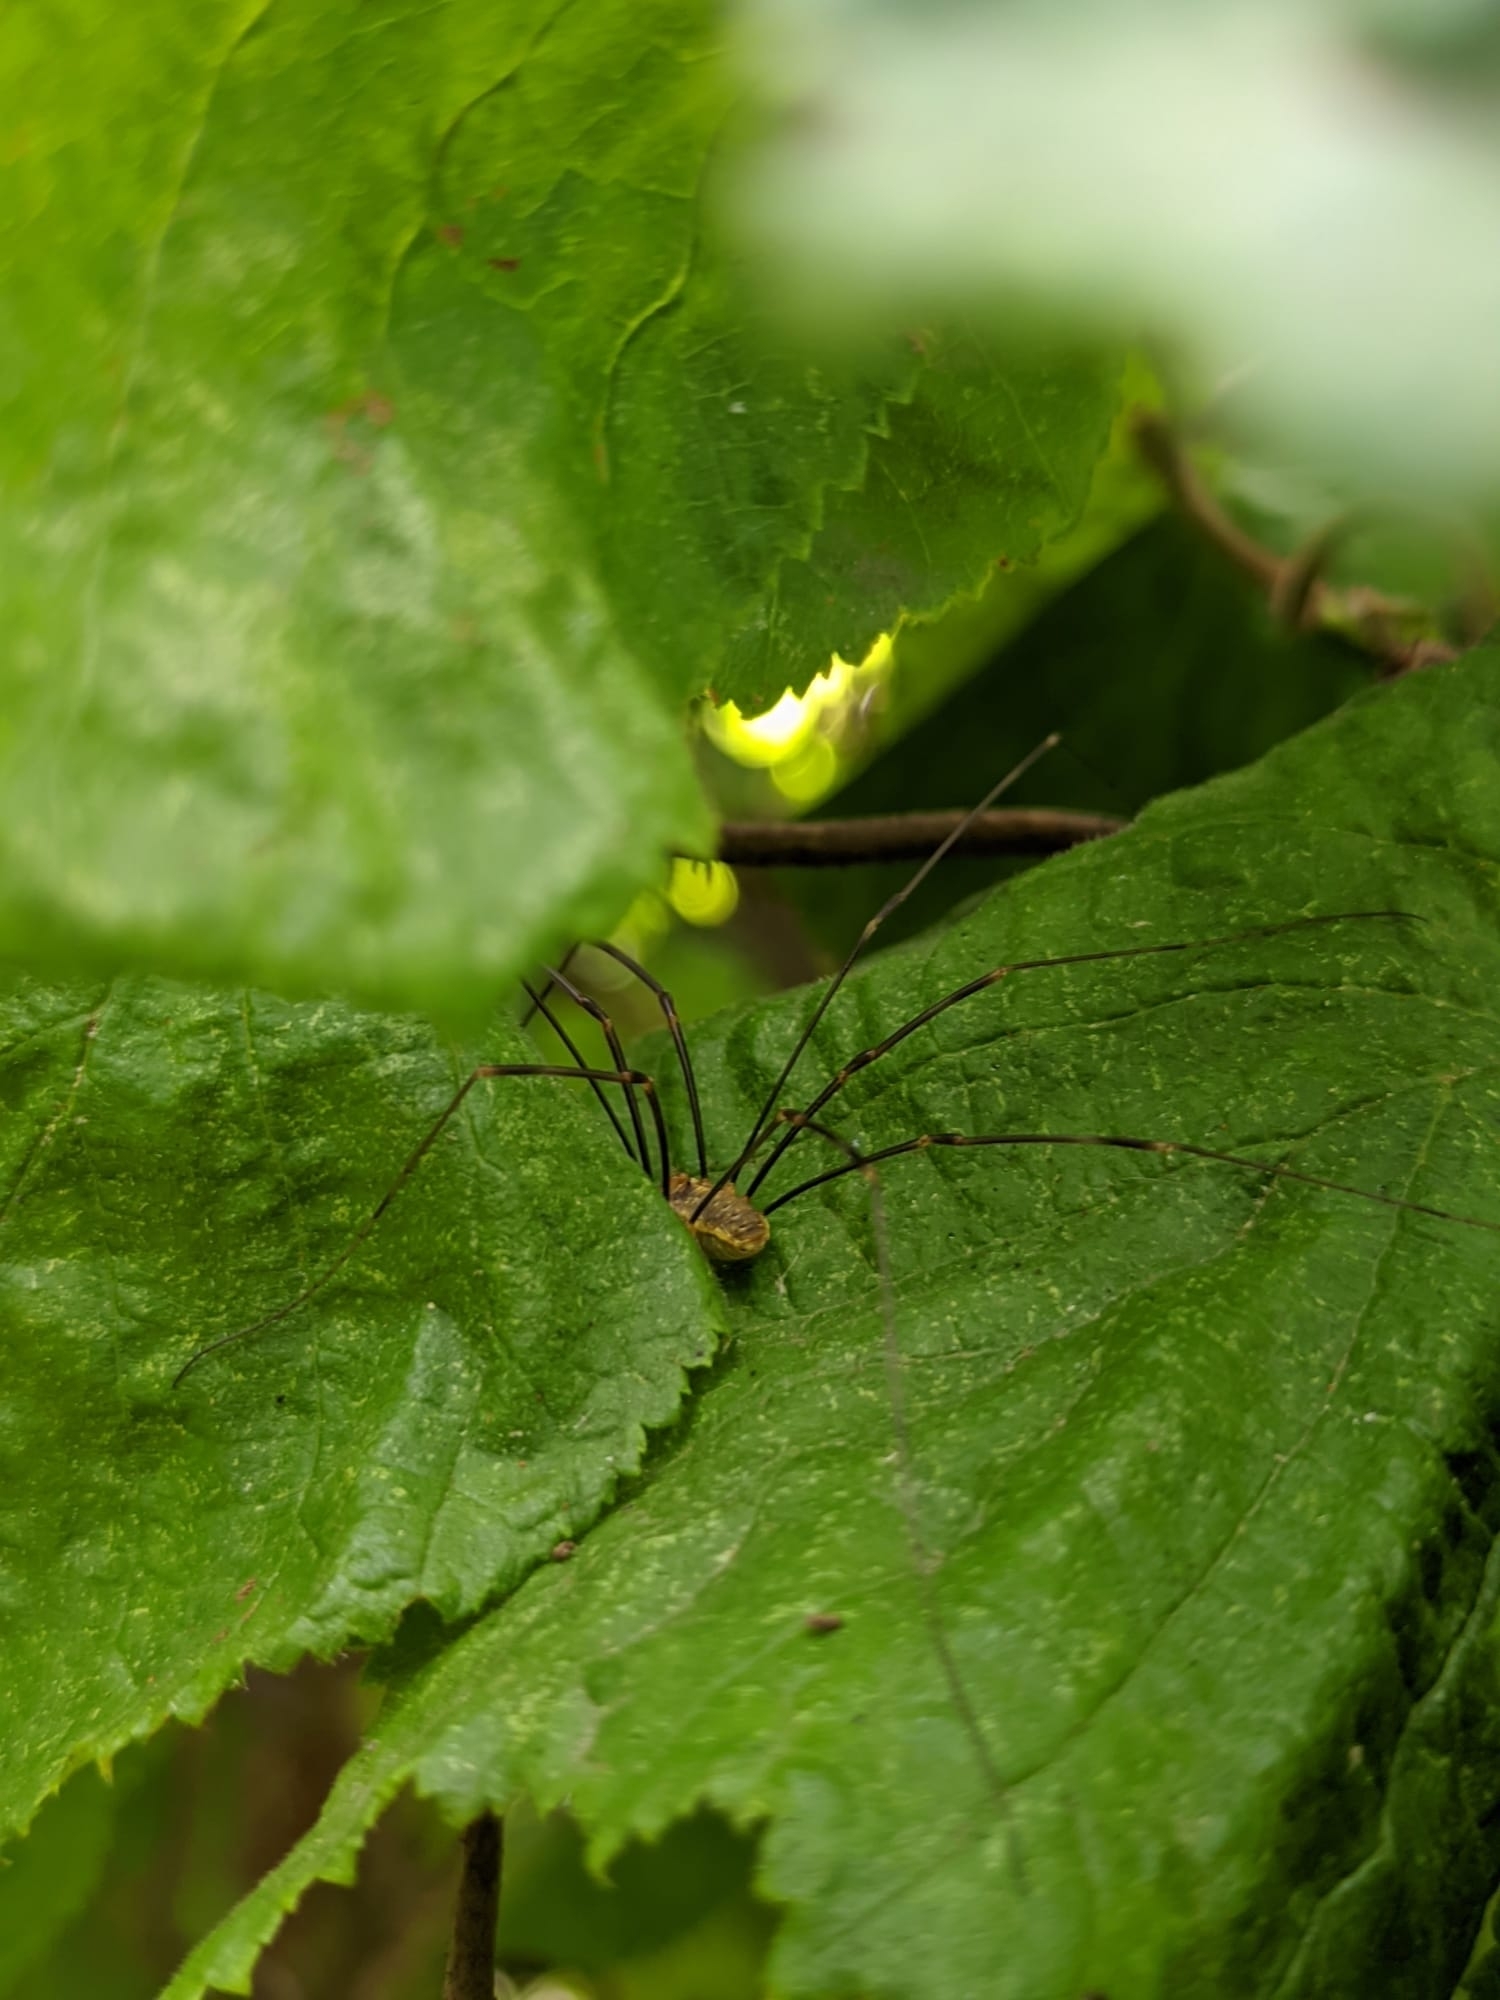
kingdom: Animalia
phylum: Arthropoda
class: Arachnida
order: Opiliones
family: Phalangiidae
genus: Opilio
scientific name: Opilio canestrinii
